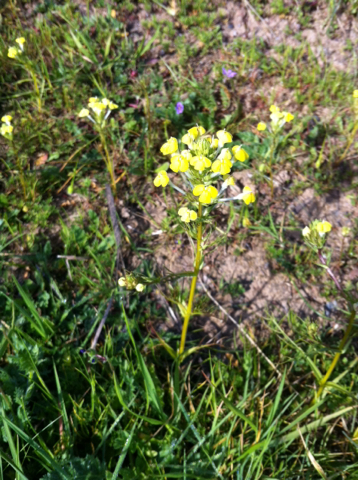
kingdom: Plantae
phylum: Tracheophyta
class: Magnoliopsida
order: Lamiales
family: Orobanchaceae
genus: Triphysaria
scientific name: Triphysaria versicolor
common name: Bearded false owl-clover
